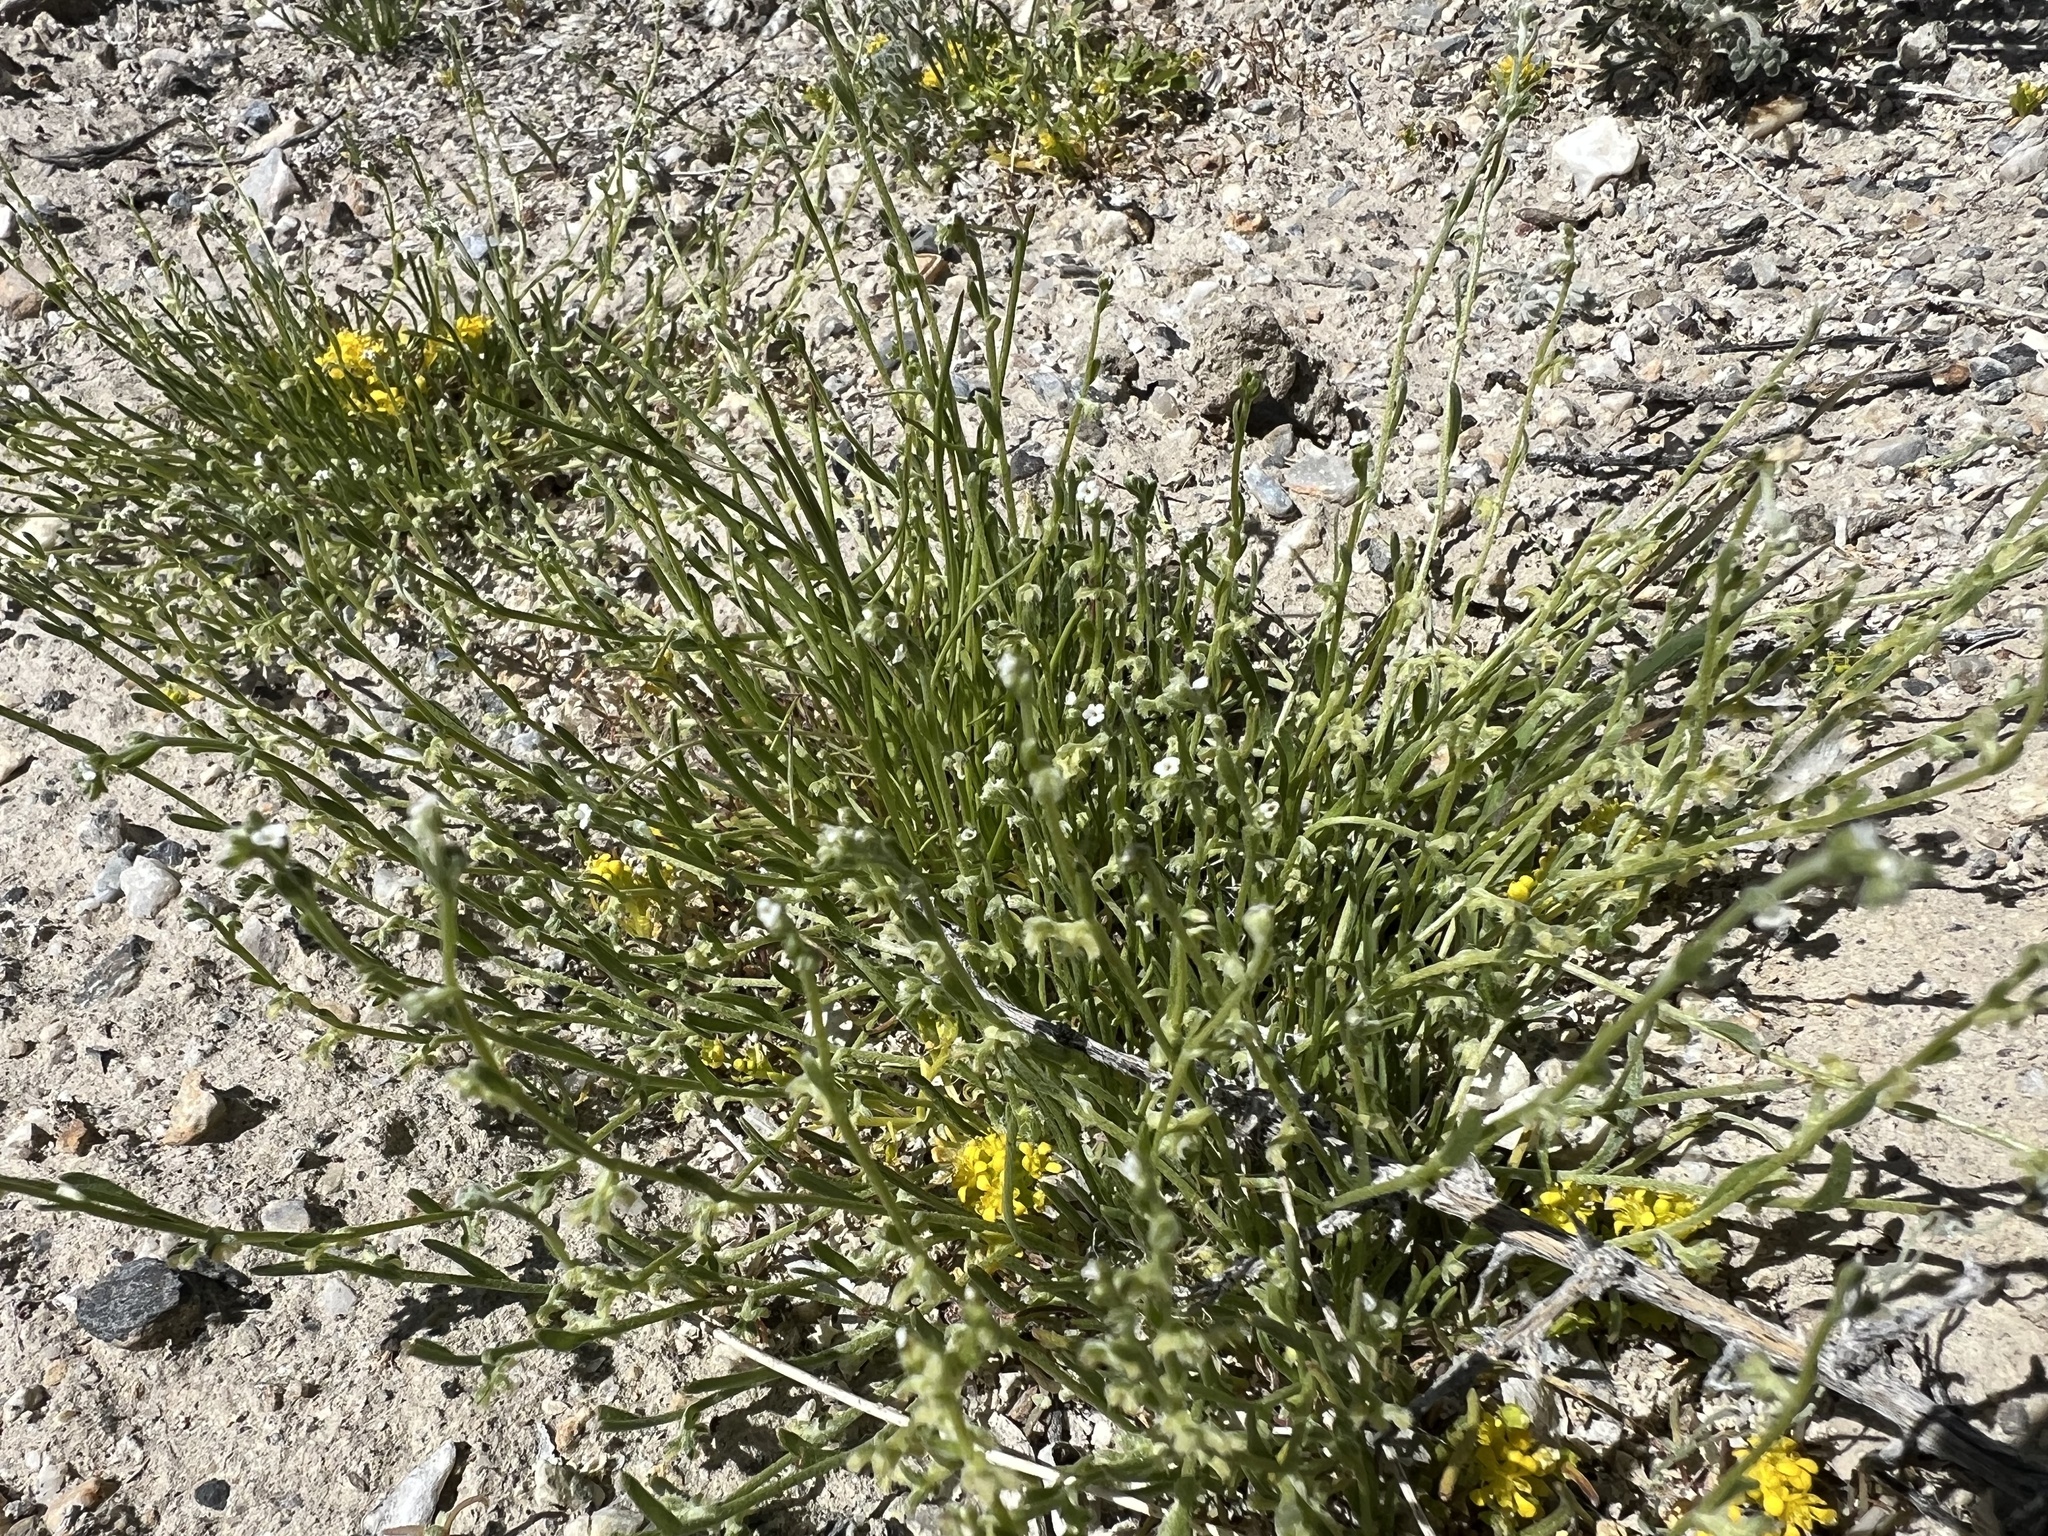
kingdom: Plantae
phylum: Tracheophyta
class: Magnoliopsida
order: Boraginales
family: Boraginaceae
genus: Pectocarya
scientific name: Pectocarya heterocarpa
